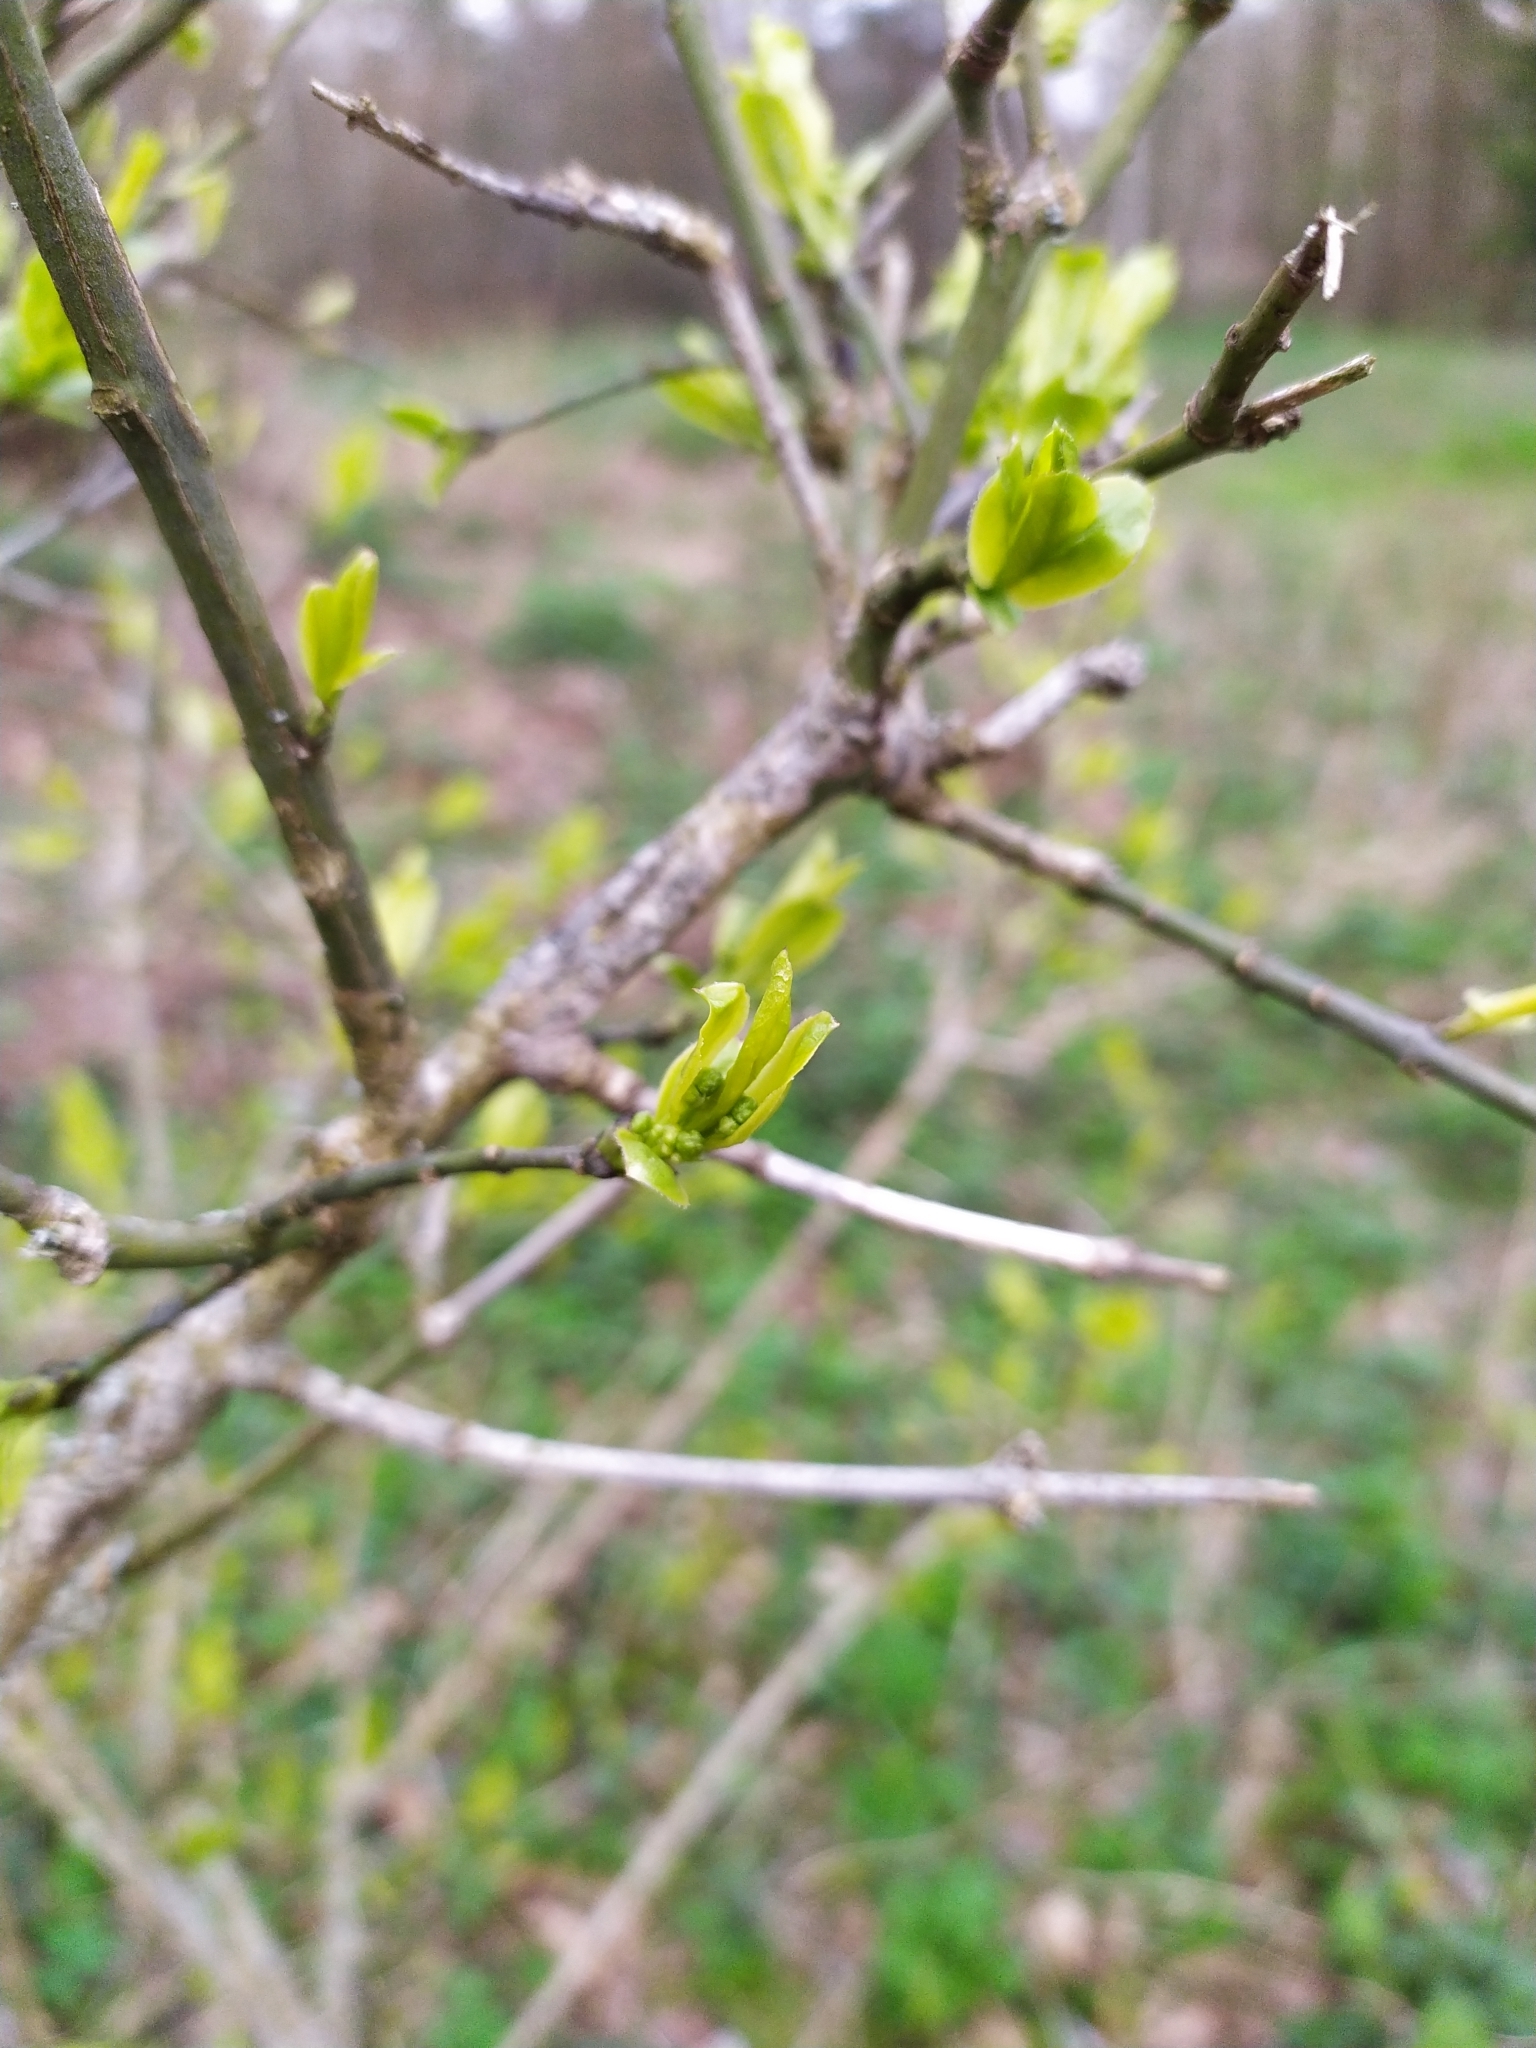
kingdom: Plantae
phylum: Tracheophyta
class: Magnoliopsida
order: Celastrales
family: Celastraceae
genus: Euonymus
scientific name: Euonymus europaeus
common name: Spindle
